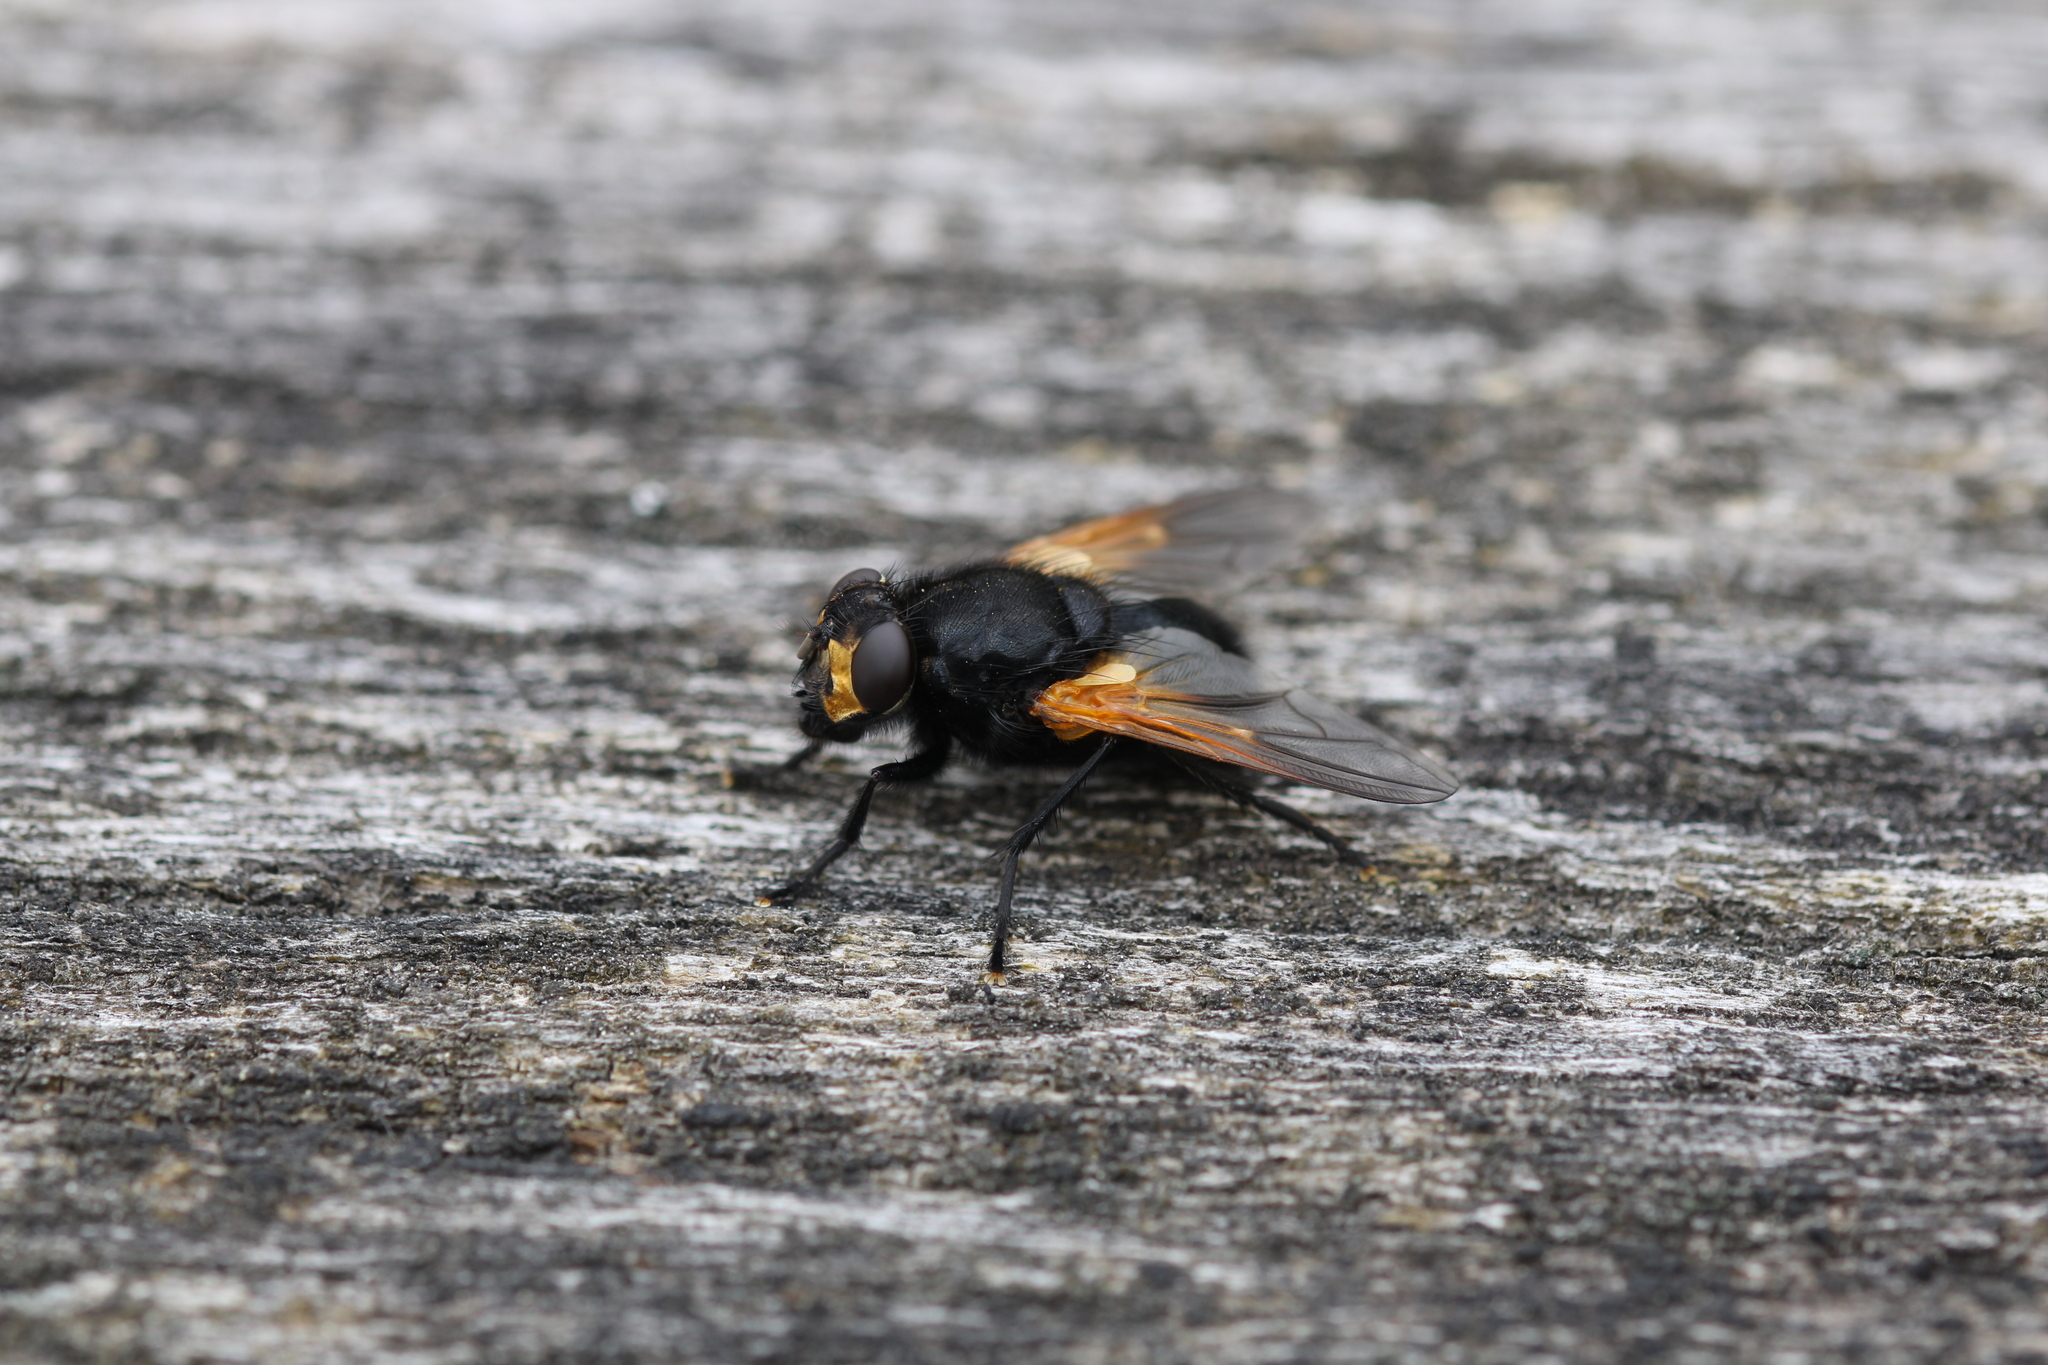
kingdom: Animalia
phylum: Arthropoda
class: Insecta
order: Diptera
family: Muscidae
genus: Mesembrina
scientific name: Mesembrina meridiana
